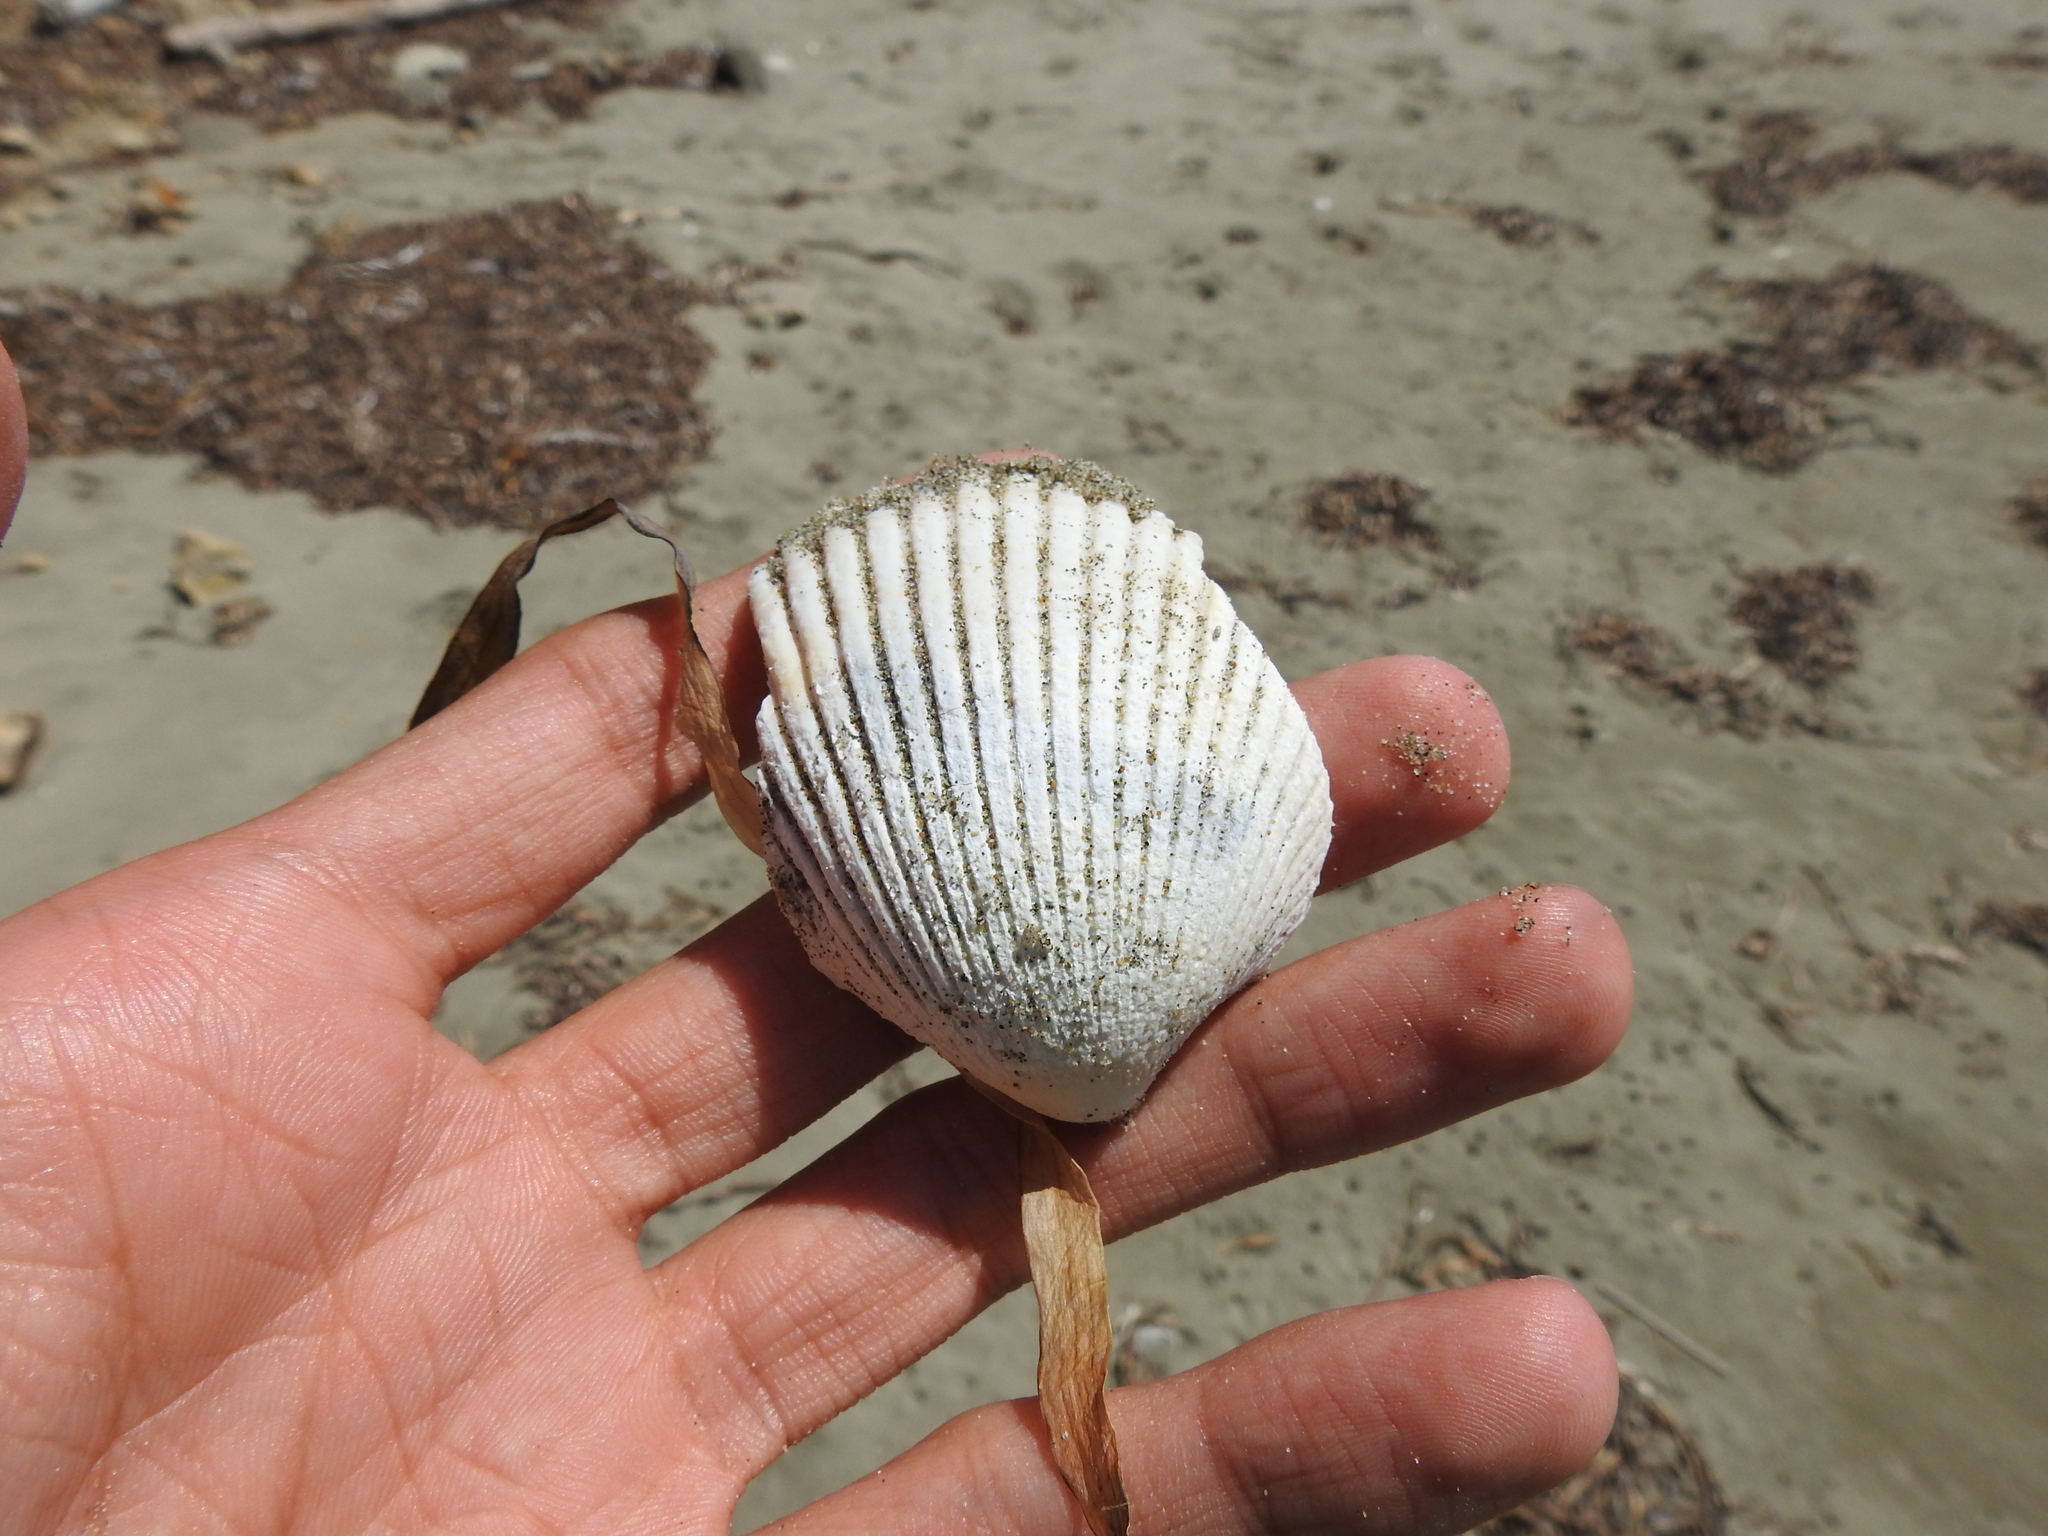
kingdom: Animalia
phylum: Mollusca
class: Bivalvia
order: Cardiida
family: Cardiidae
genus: Clinocardium
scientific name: Clinocardium nuttallii
